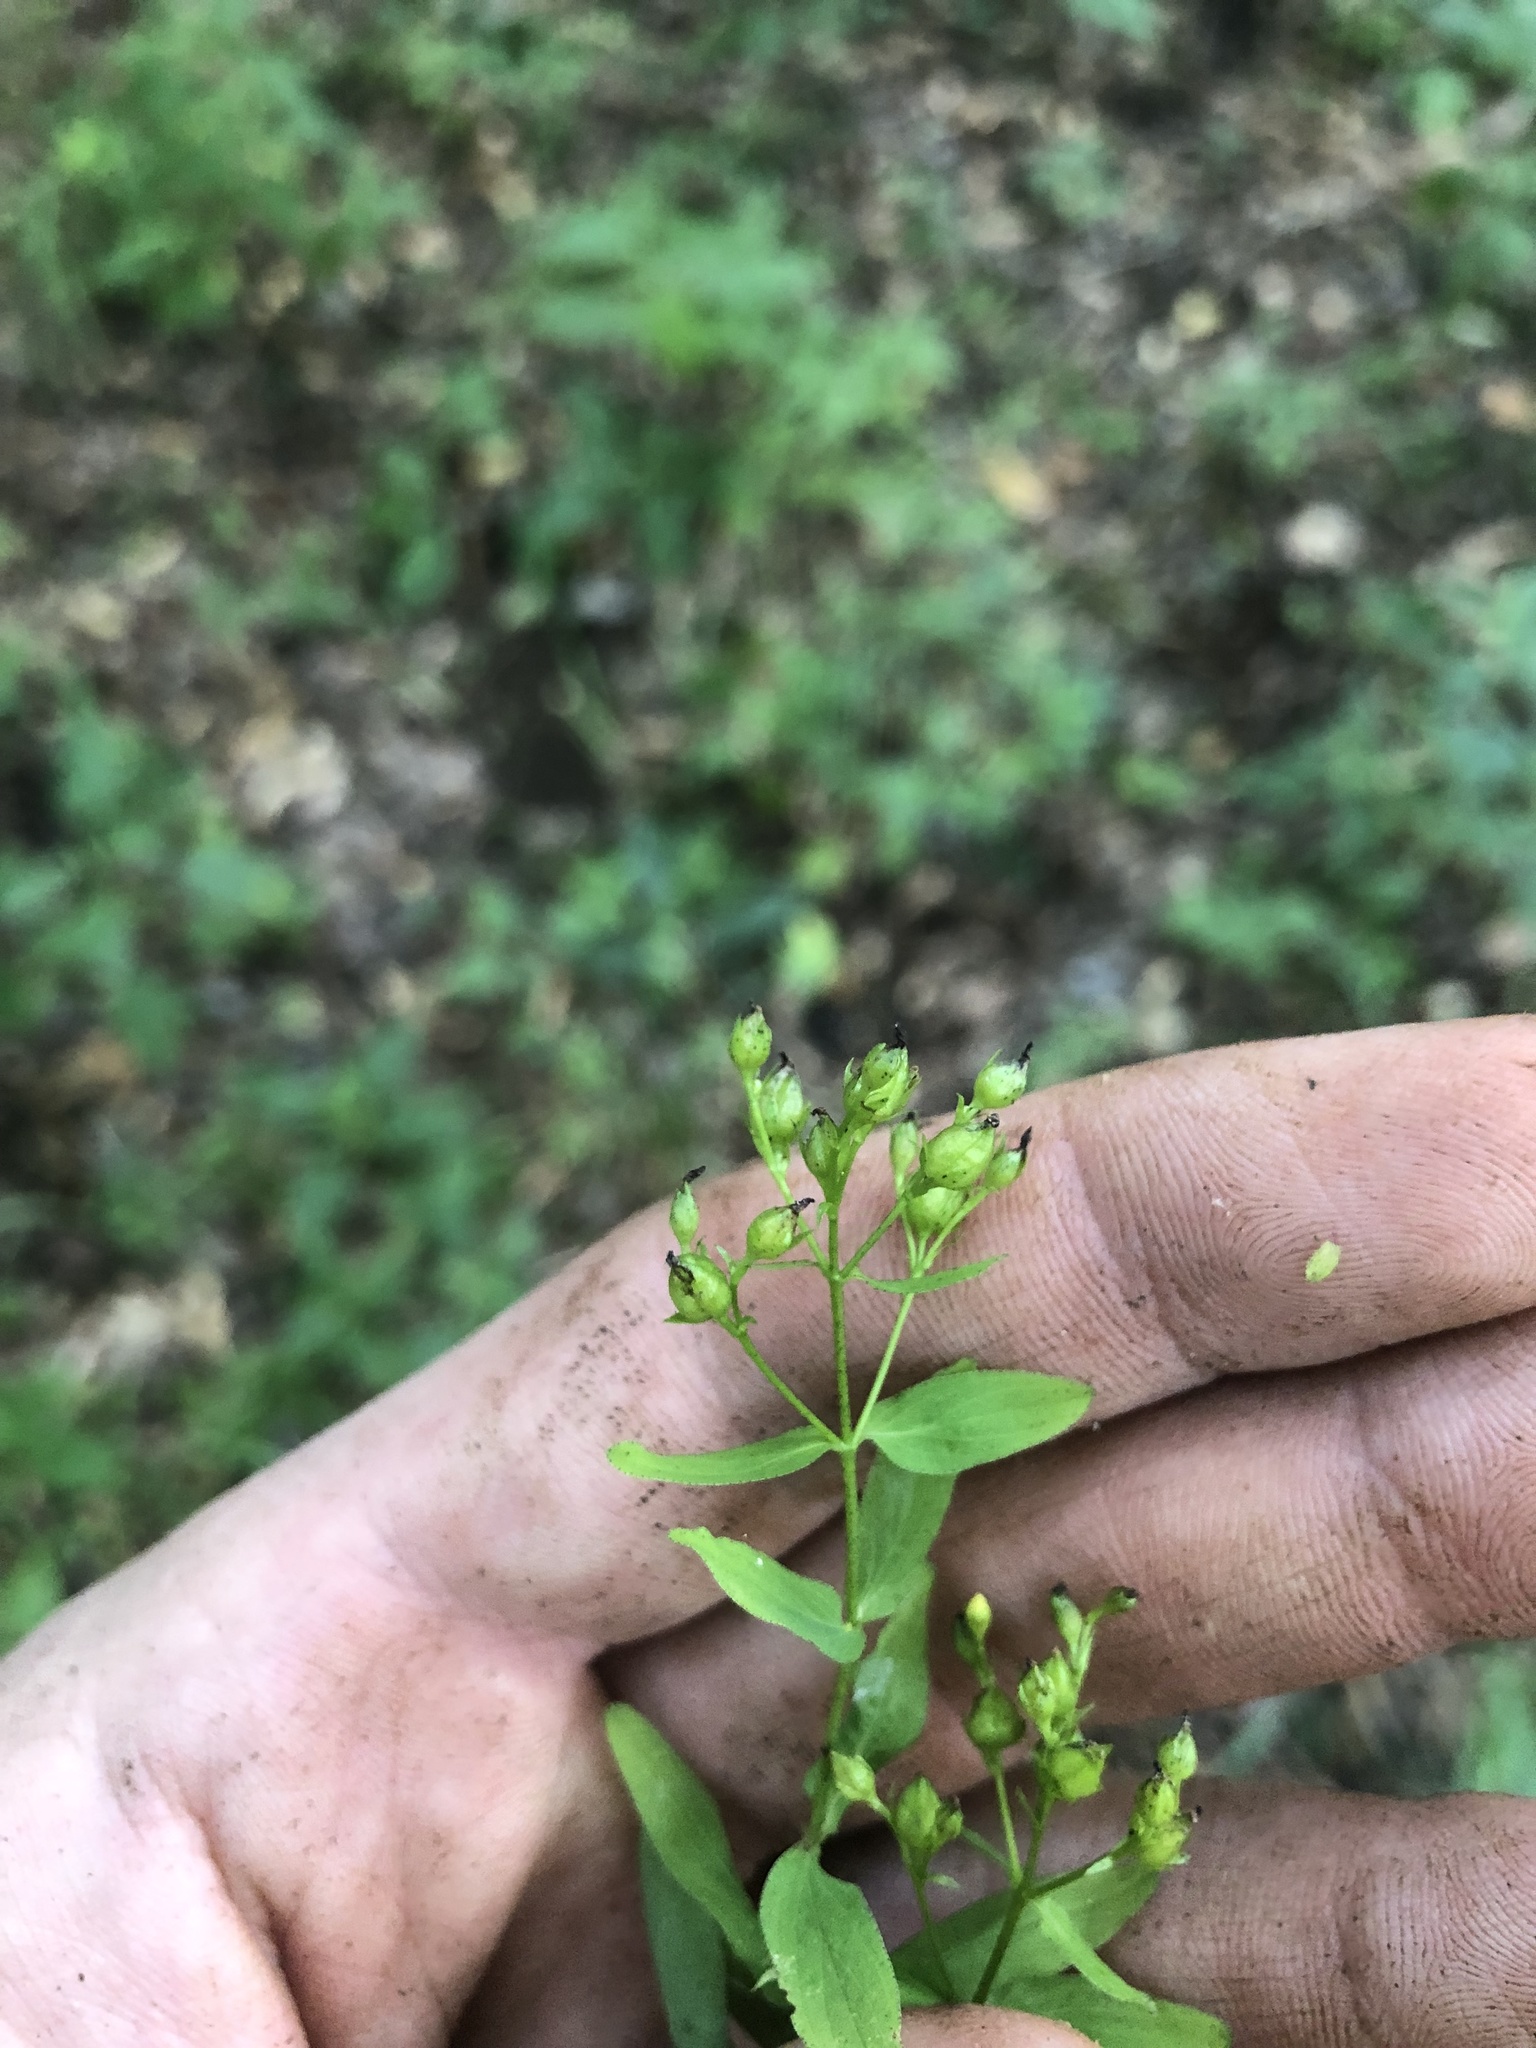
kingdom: Plantae
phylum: Tracheophyta
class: Magnoliopsida
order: Malpighiales
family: Hypericaceae
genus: Hypericum
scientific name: Hypericum punctatum
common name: Spotted st. john's-wort
